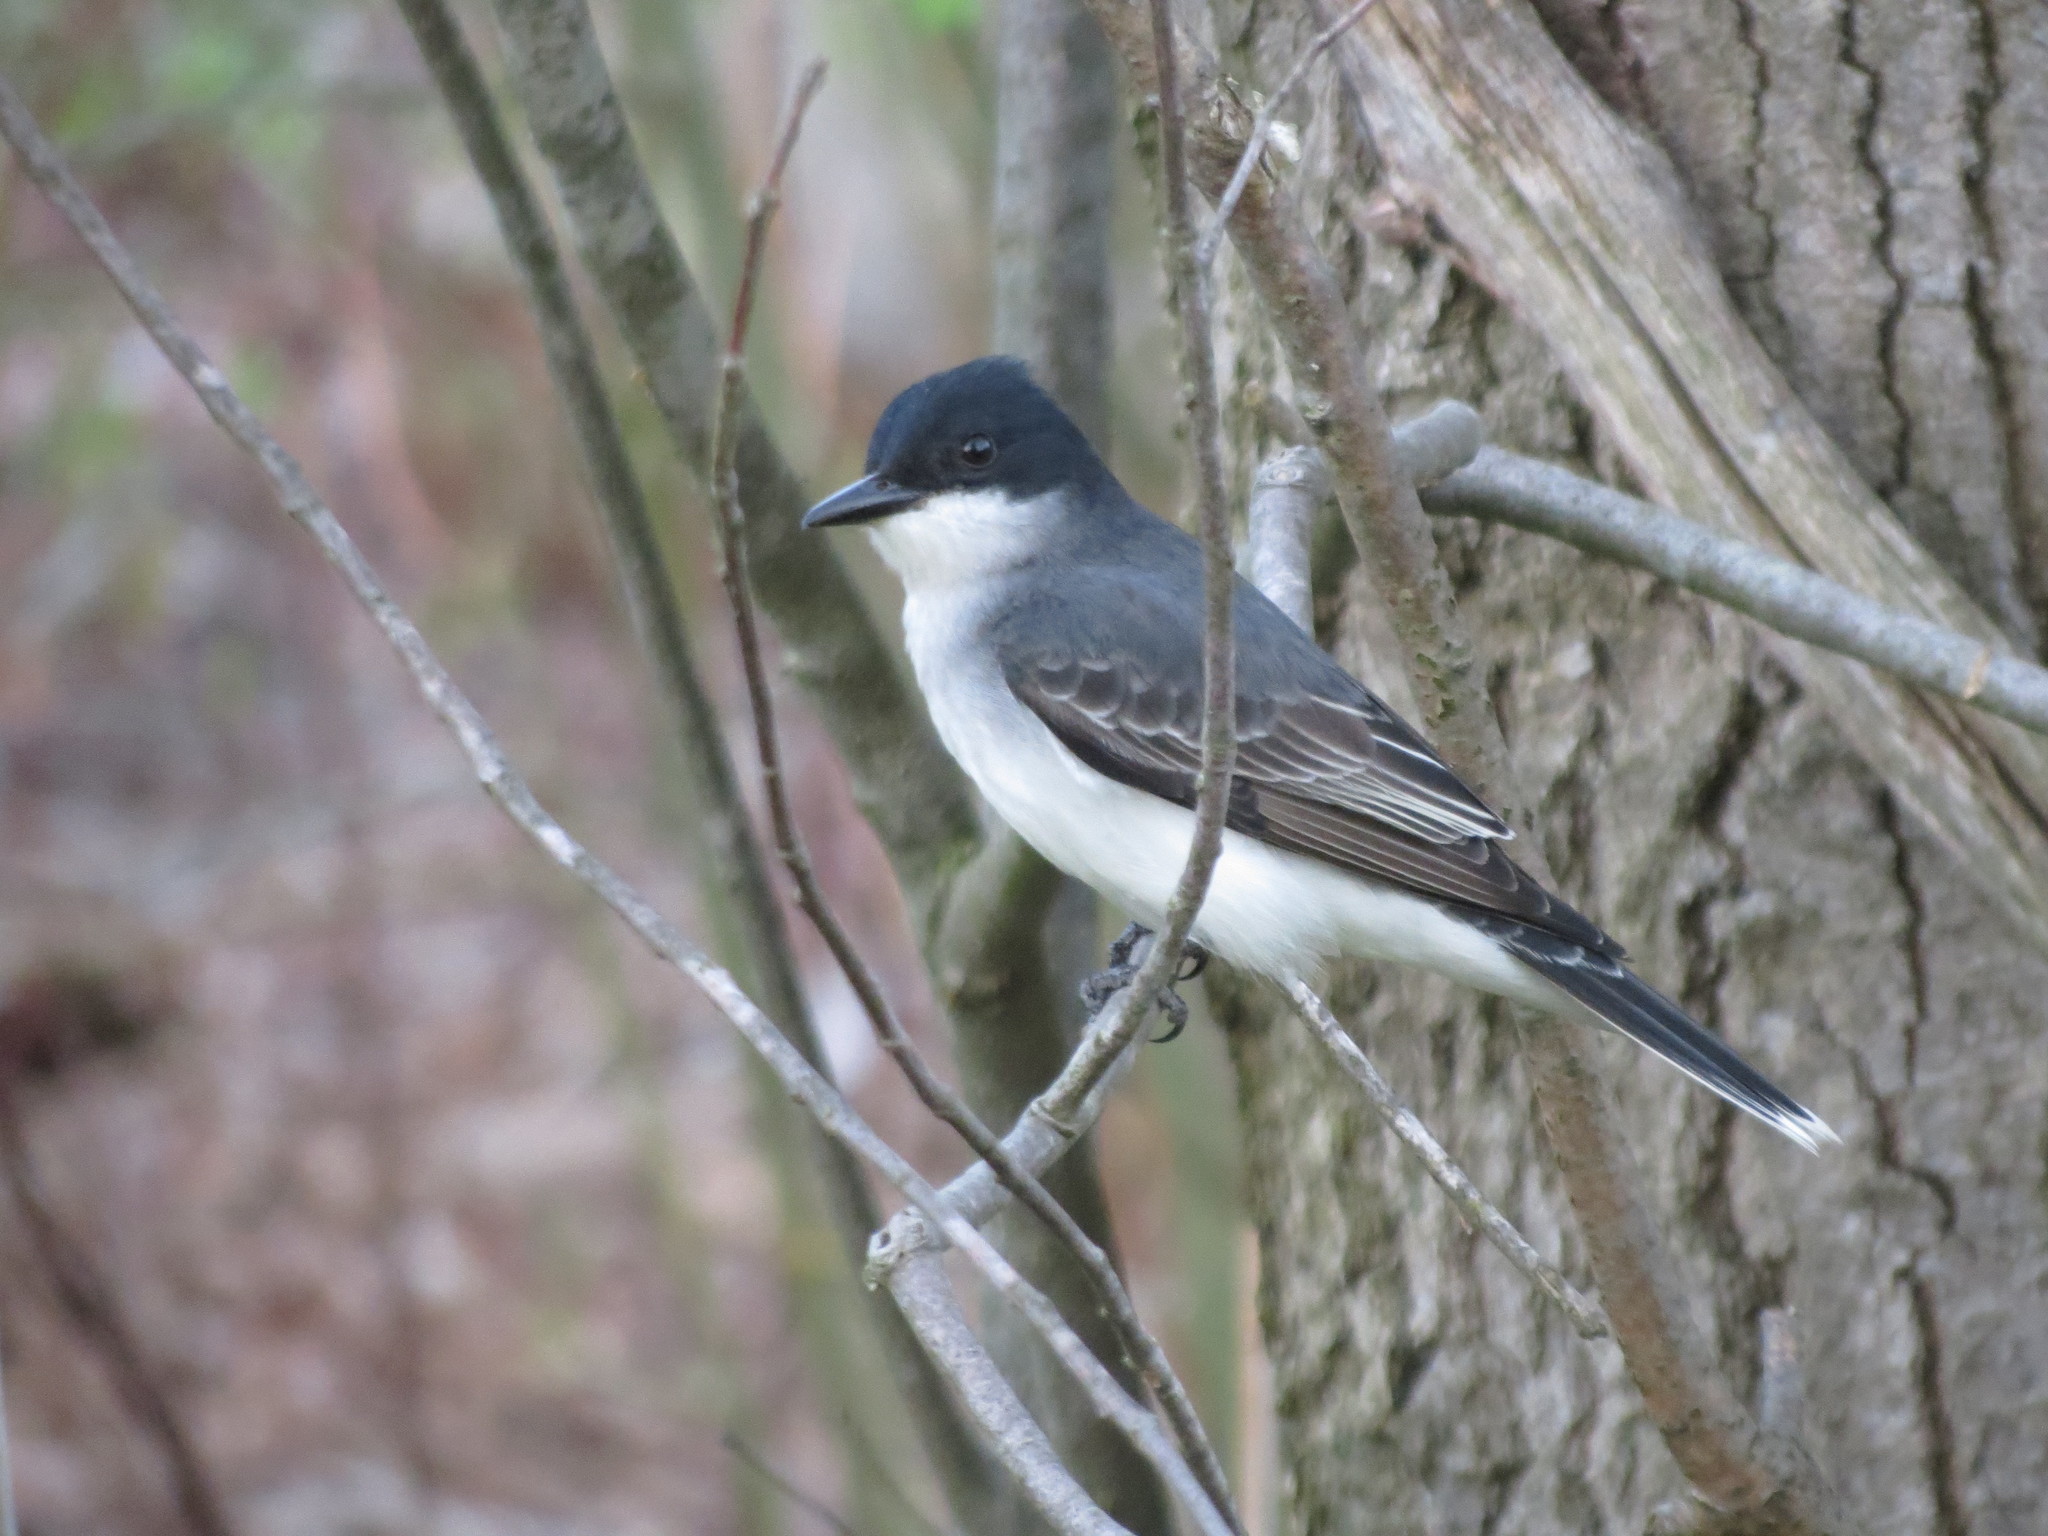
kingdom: Animalia
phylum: Chordata
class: Aves
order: Passeriformes
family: Tyrannidae
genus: Tyrannus
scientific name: Tyrannus tyrannus
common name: Eastern kingbird
